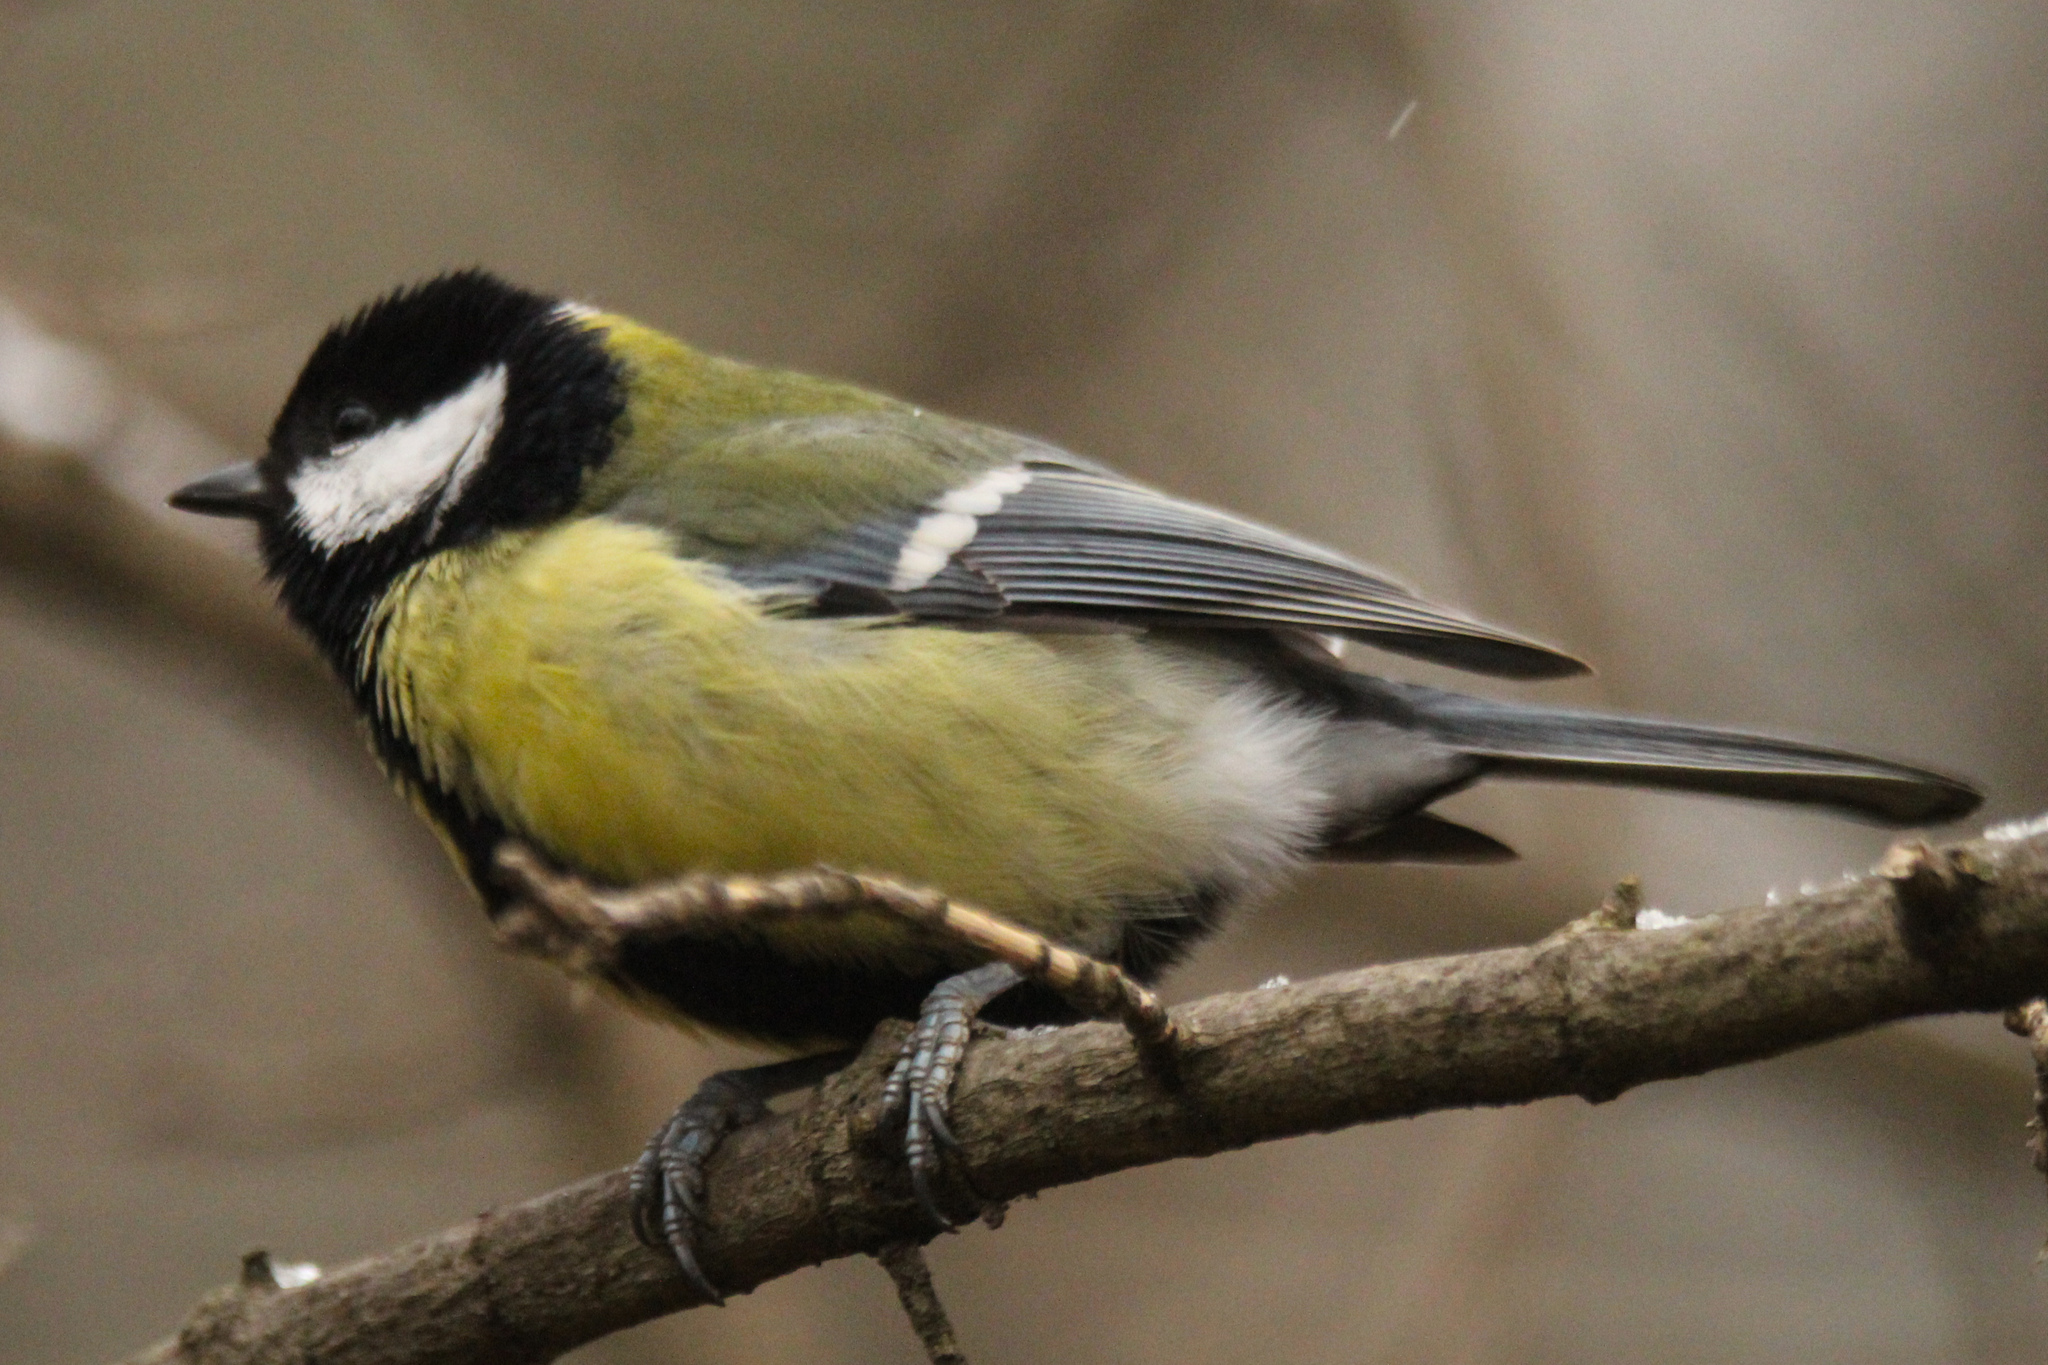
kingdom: Animalia
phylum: Chordata
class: Aves
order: Passeriformes
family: Paridae
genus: Parus
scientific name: Parus major
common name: Great tit
